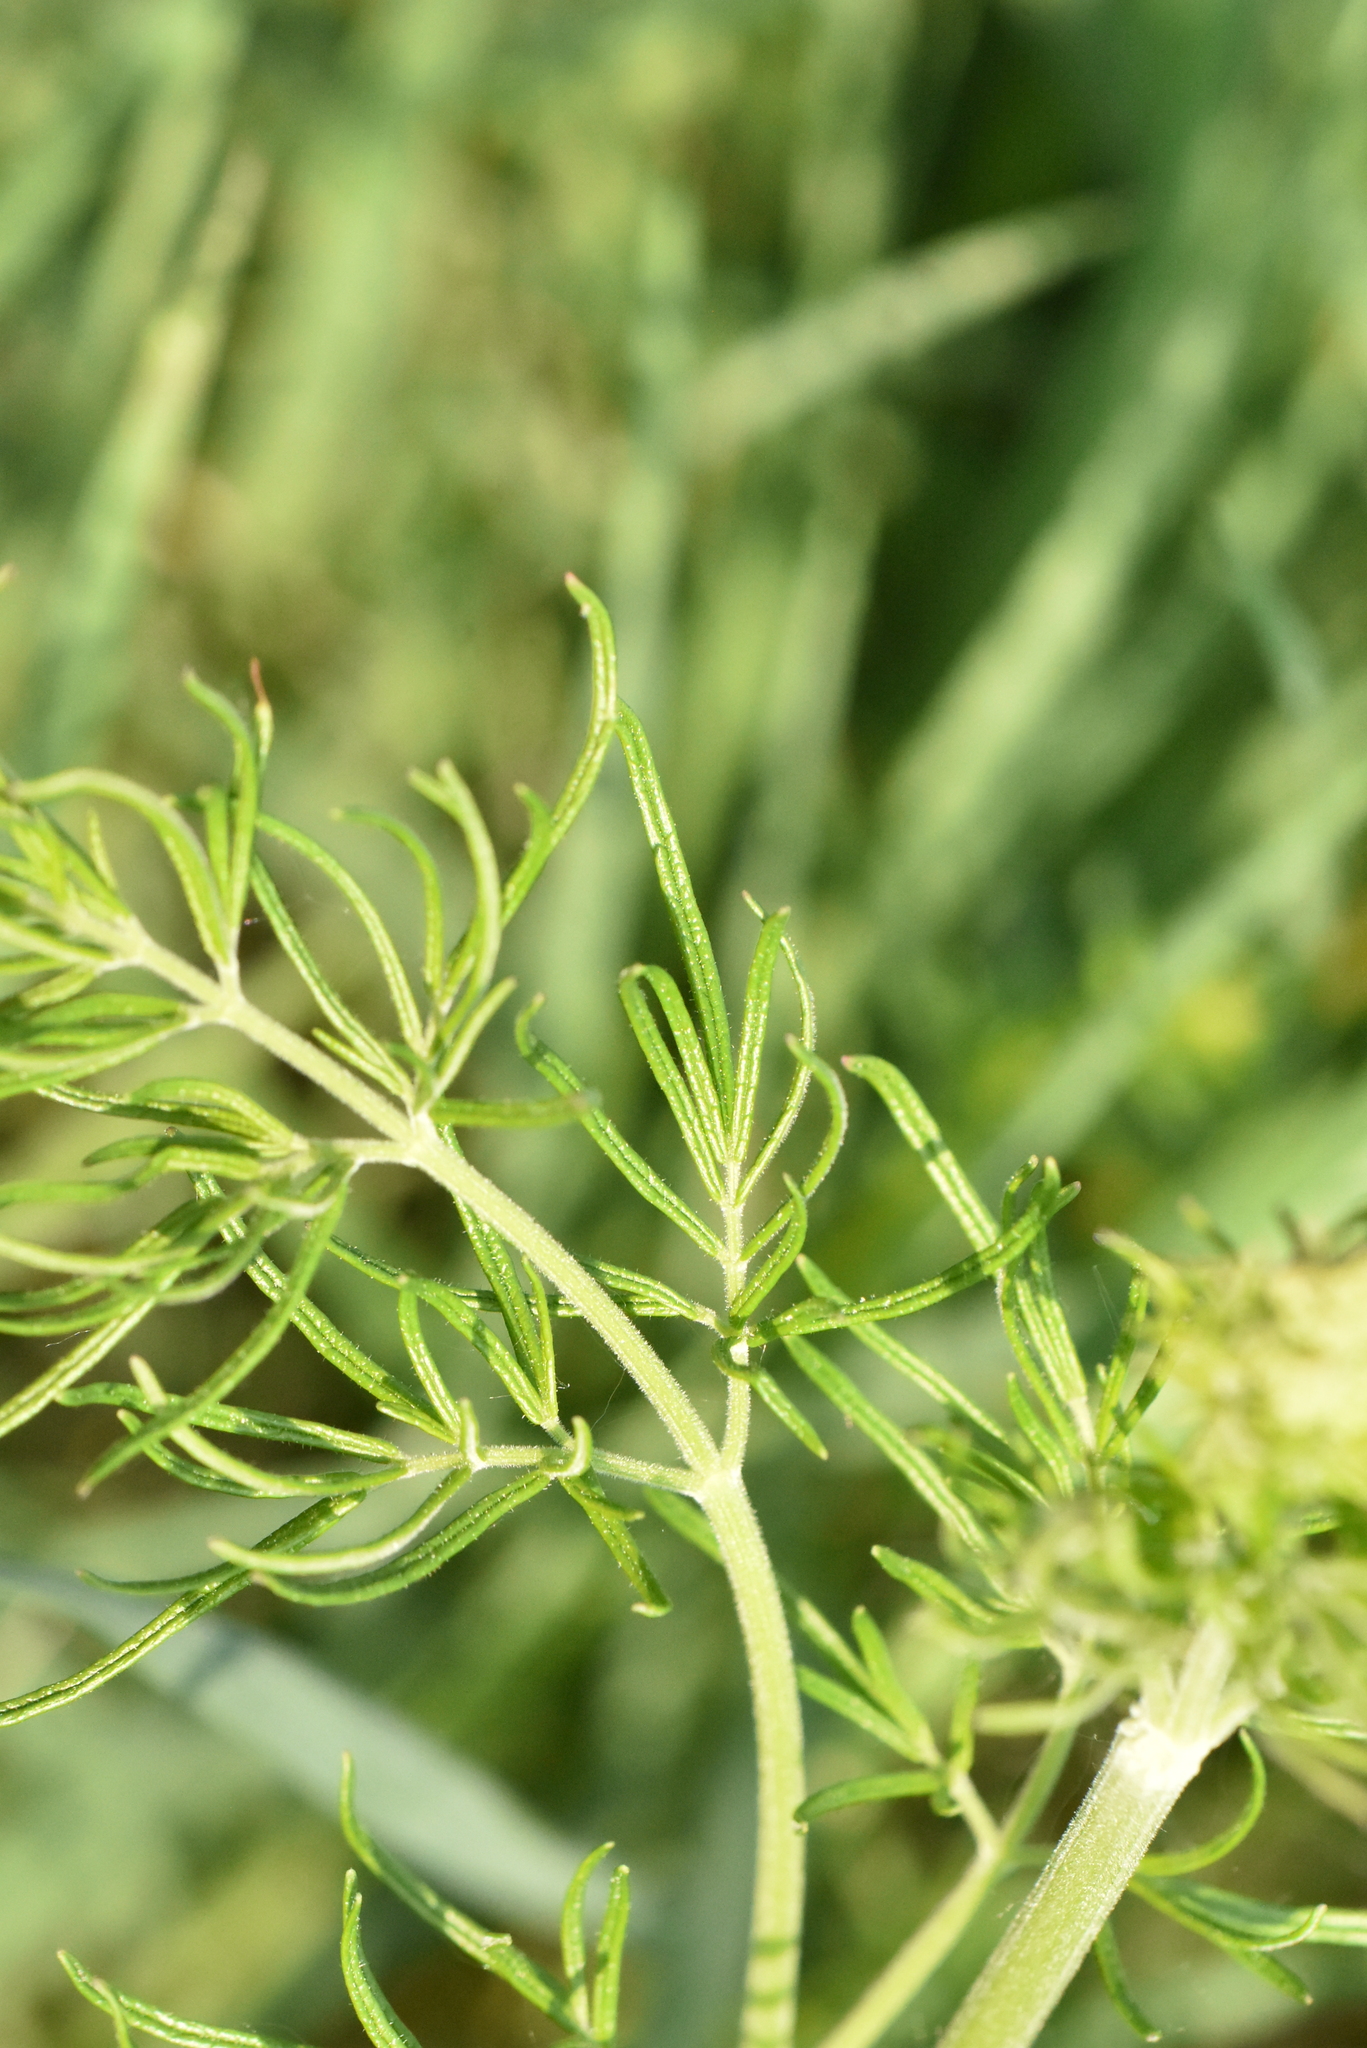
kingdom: Plantae
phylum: Tracheophyta
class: Magnoliopsida
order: Ranunculales
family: Ranunculaceae
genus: Thalictrum
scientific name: Thalictrum lucidum
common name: Shining meadow-rue
